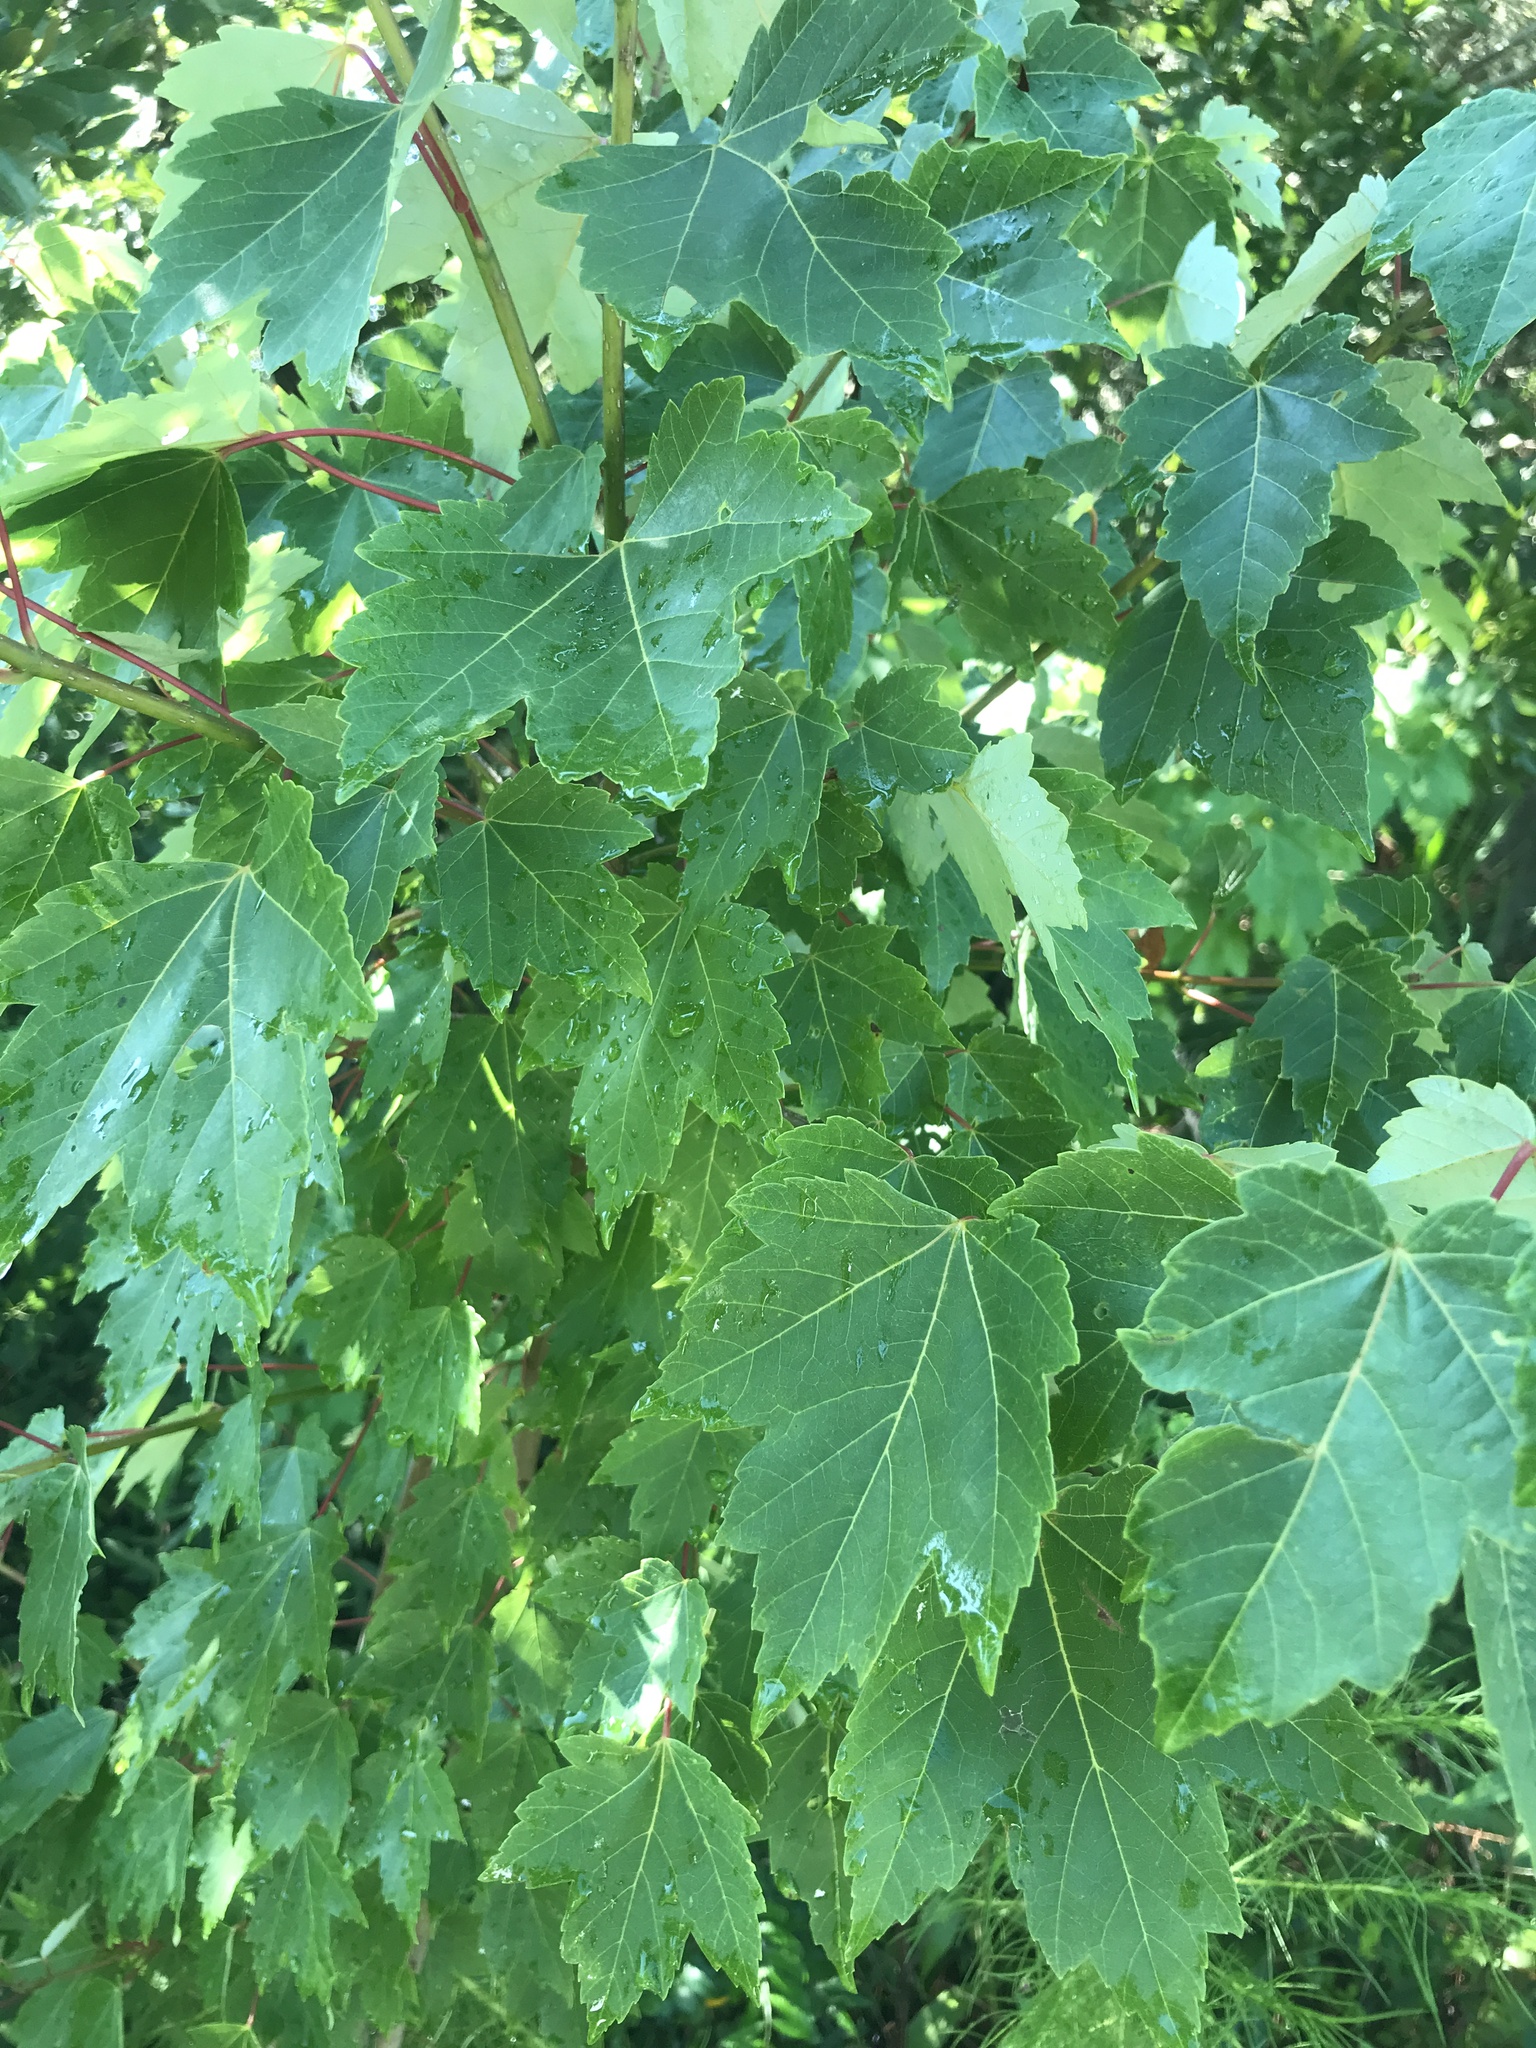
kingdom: Plantae
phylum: Tracheophyta
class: Magnoliopsida
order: Sapindales
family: Sapindaceae
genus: Acer
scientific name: Acer rubrum
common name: Red maple
